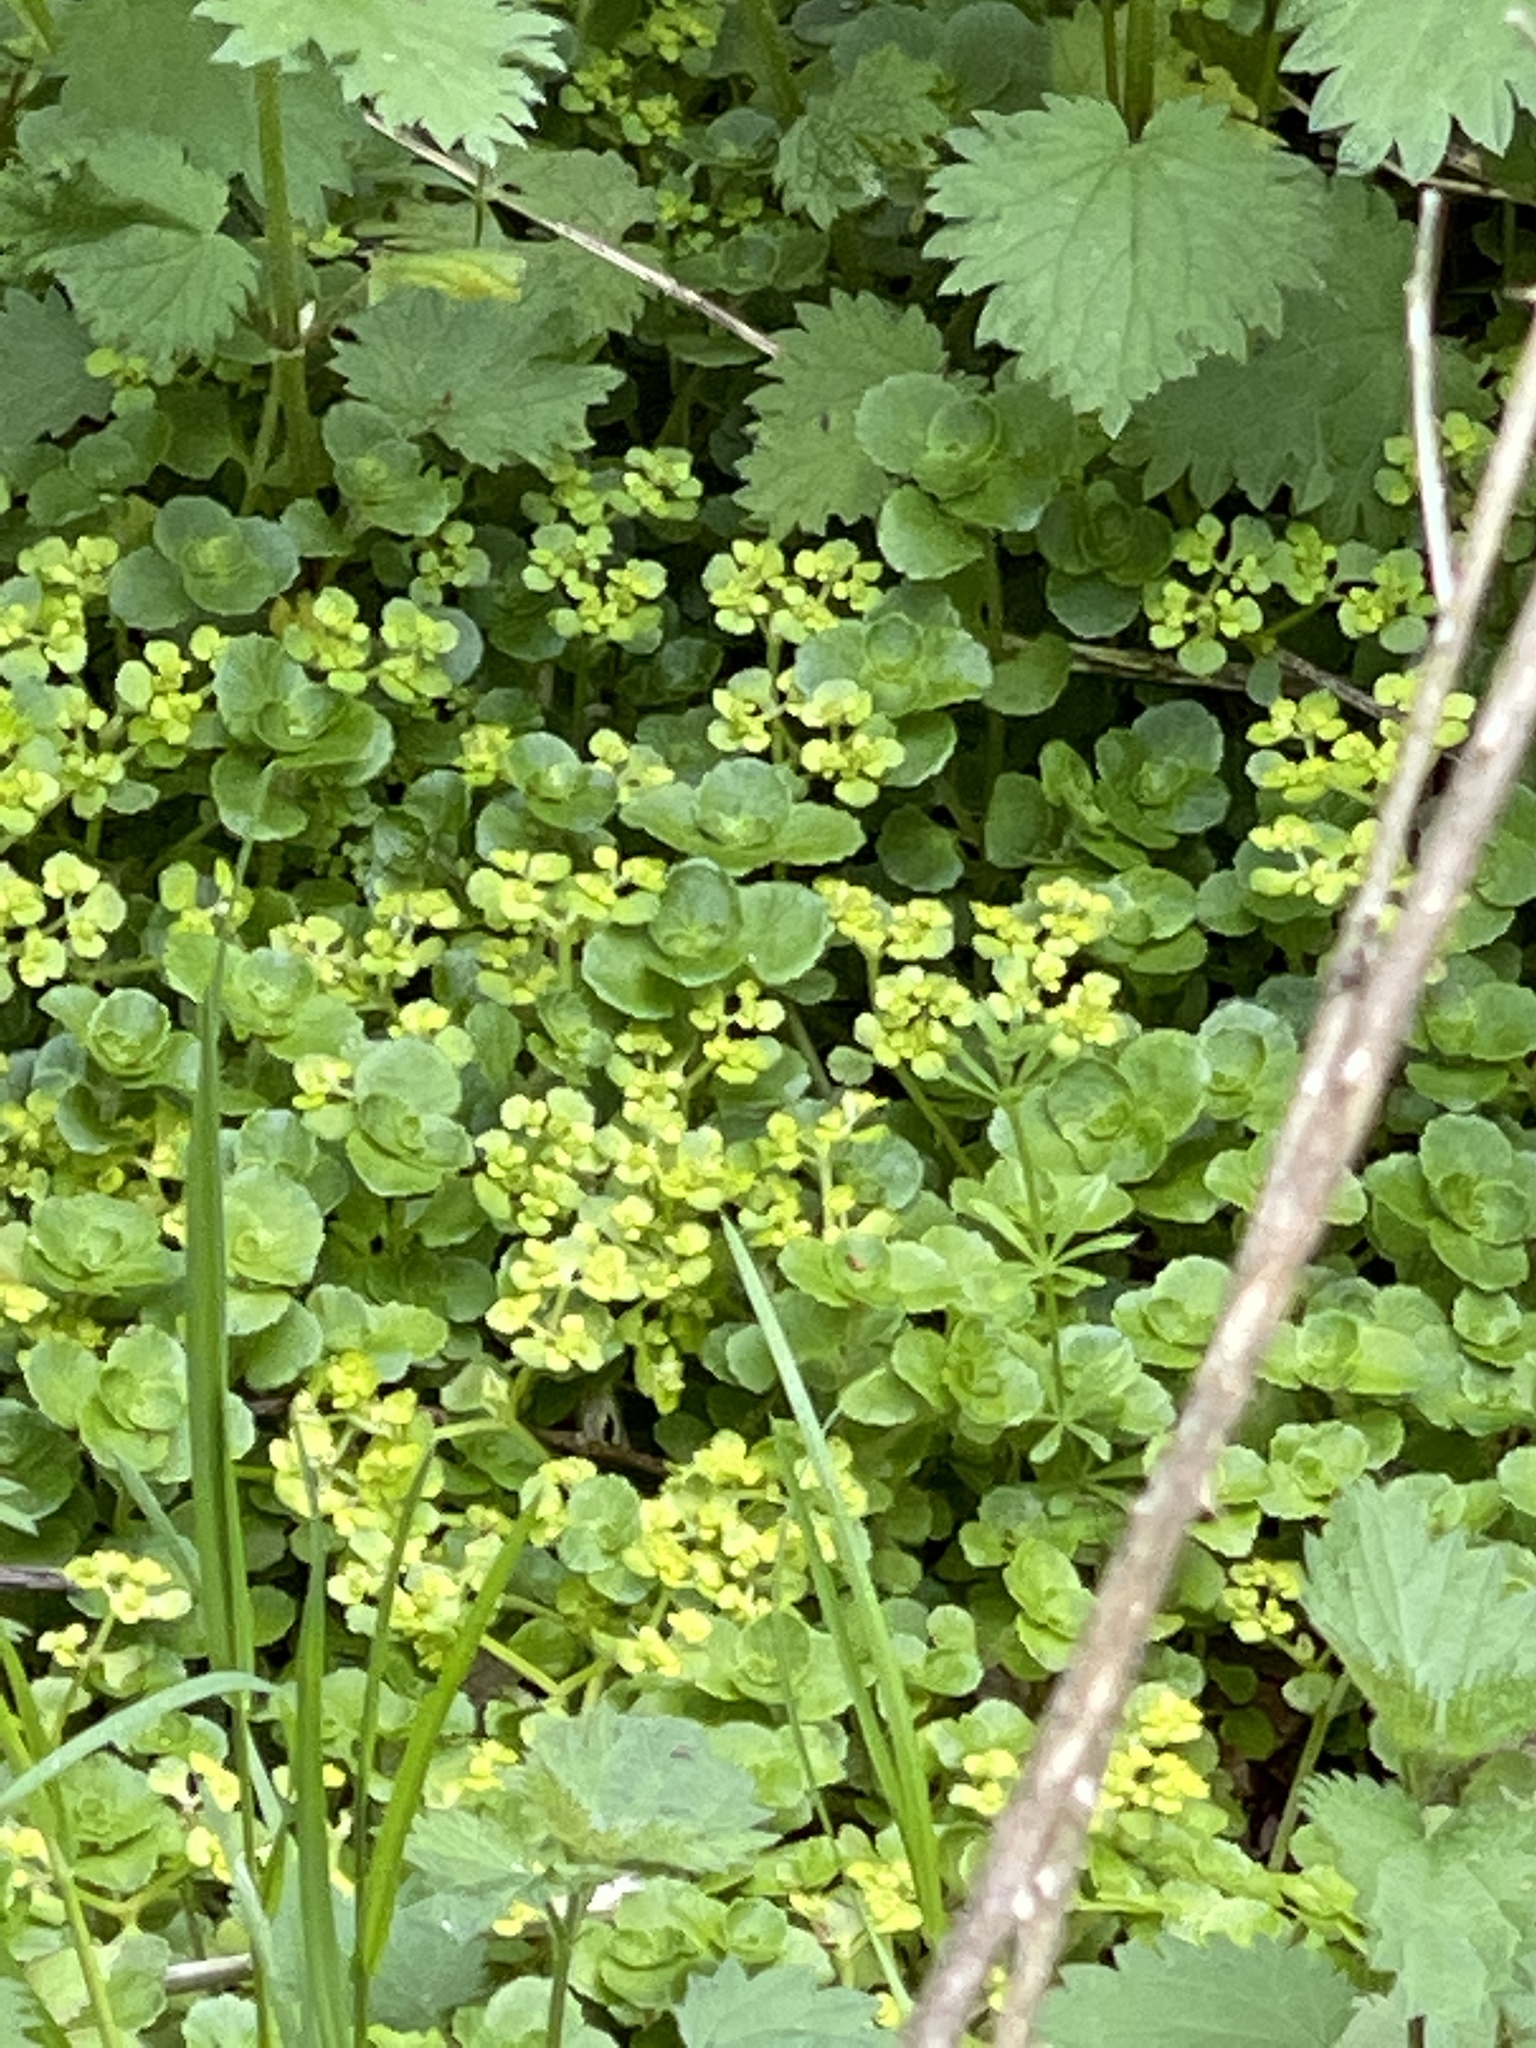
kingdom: Plantae
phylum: Tracheophyta
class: Magnoliopsida
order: Saxifragales
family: Saxifragaceae
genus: Chrysosplenium
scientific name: Chrysosplenium oppositifolium
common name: Opposite-leaved golden-saxifrage
